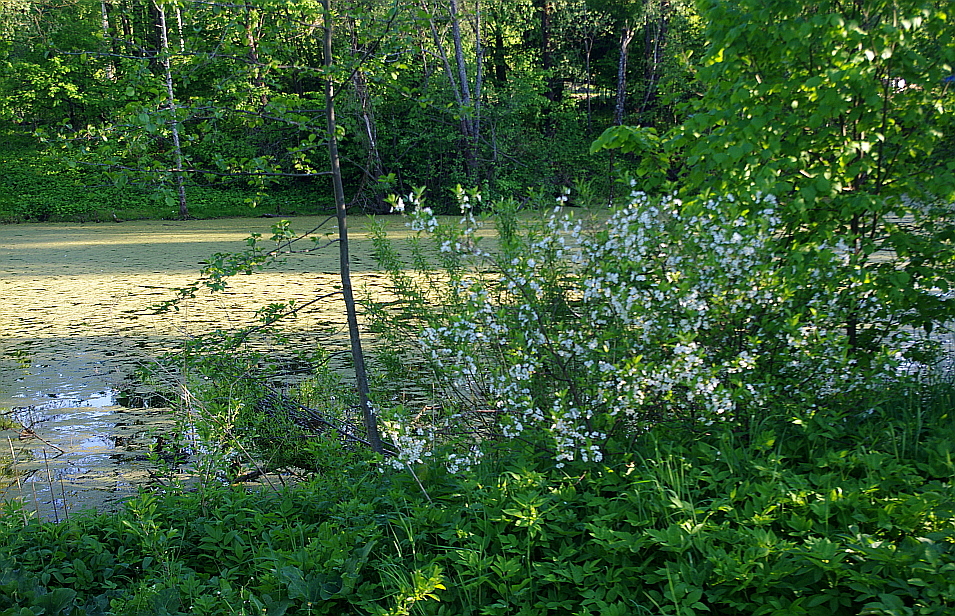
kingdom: Plantae
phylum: Tracheophyta
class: Magnoliopsida
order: Rosales
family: Rosaceae
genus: Prunus
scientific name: Prunus cerasus
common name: Morello cherry
